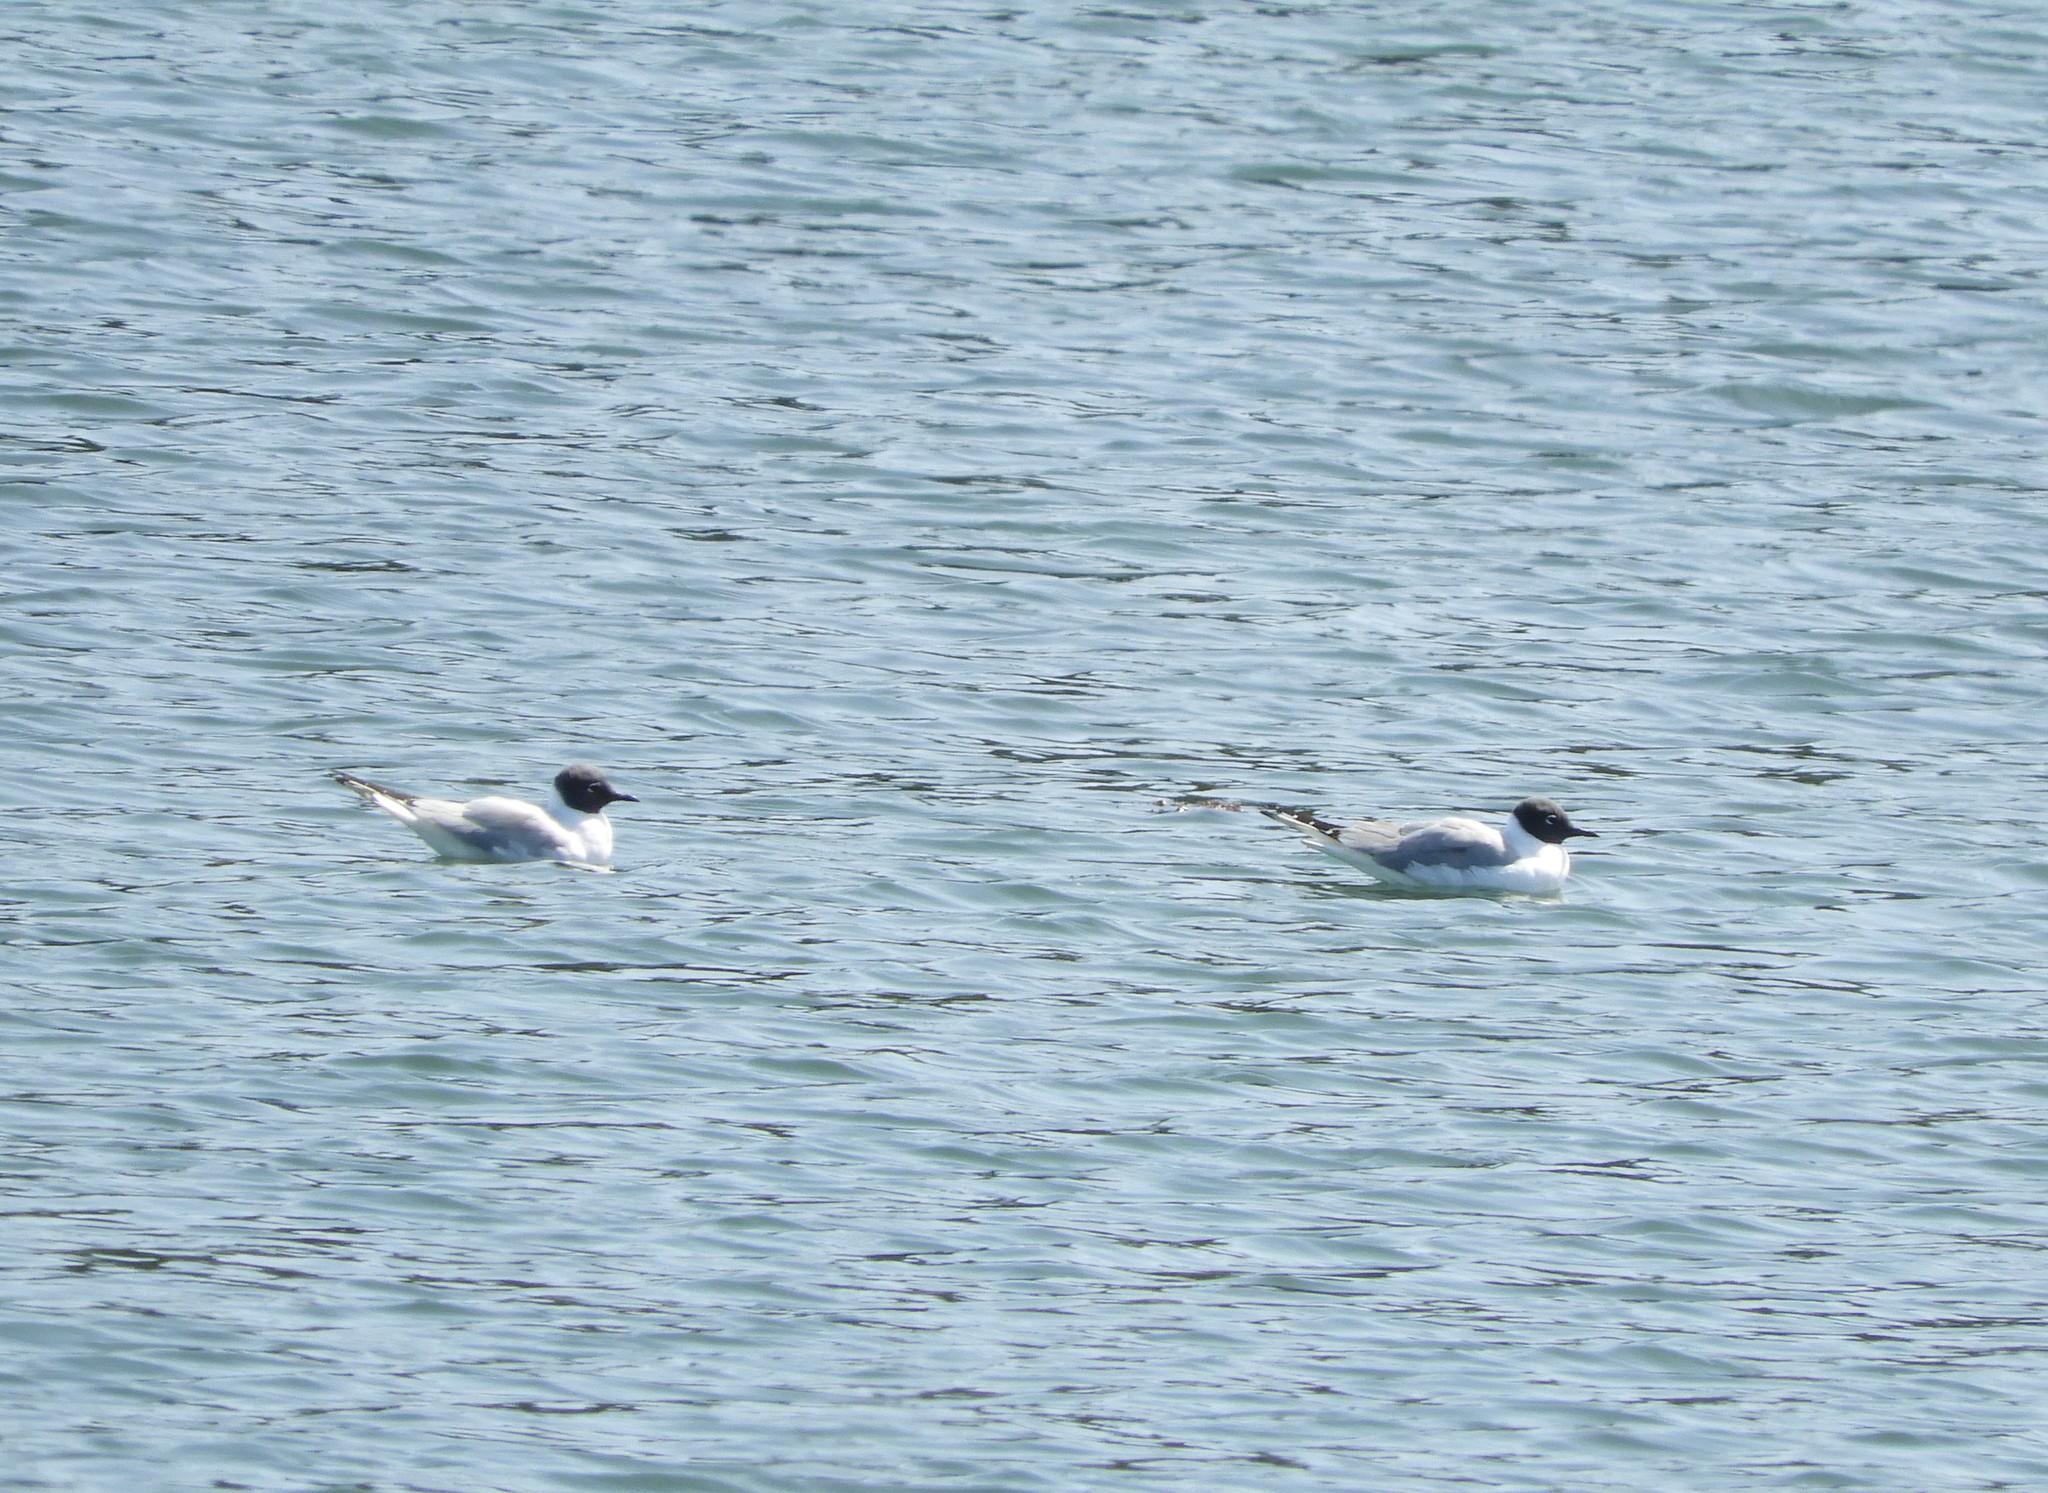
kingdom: Animalia
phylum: Chordata
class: Aves
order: Charadriiformes
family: Laridae
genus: Chroicocephalus
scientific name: Chroicocephalus philadelphia
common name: Bonaparte's gull
